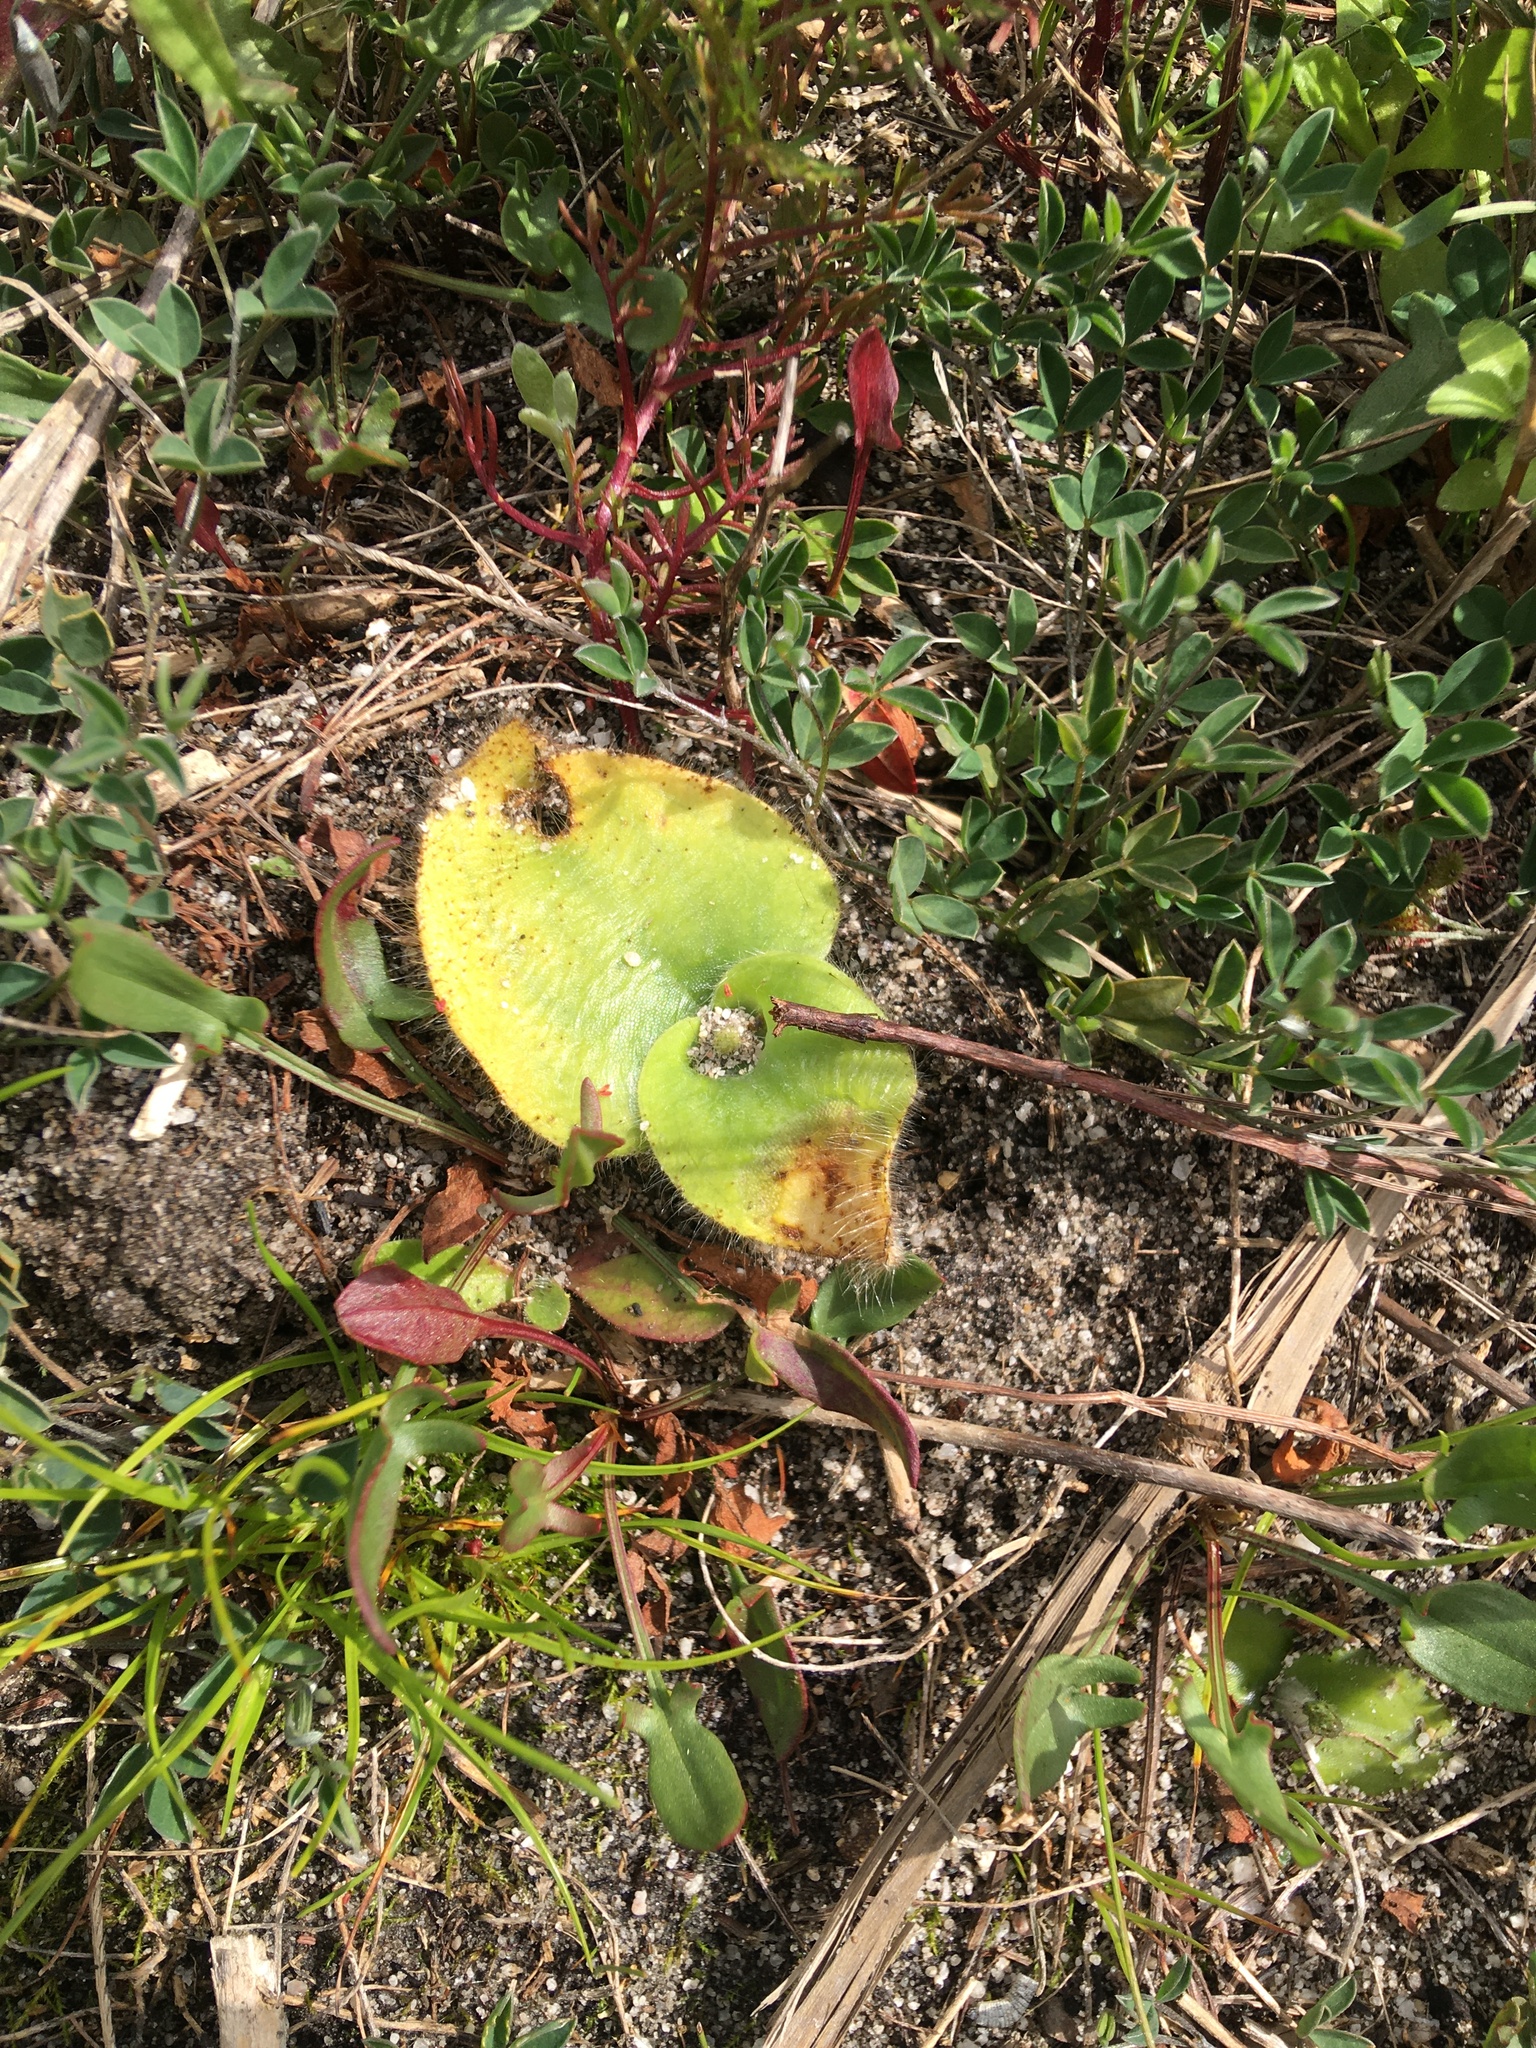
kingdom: Plantae
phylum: Tracheophyta
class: Liliopsida
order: Asparagales
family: Orchidaceae
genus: Holothrix
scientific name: Holothrix villosa
